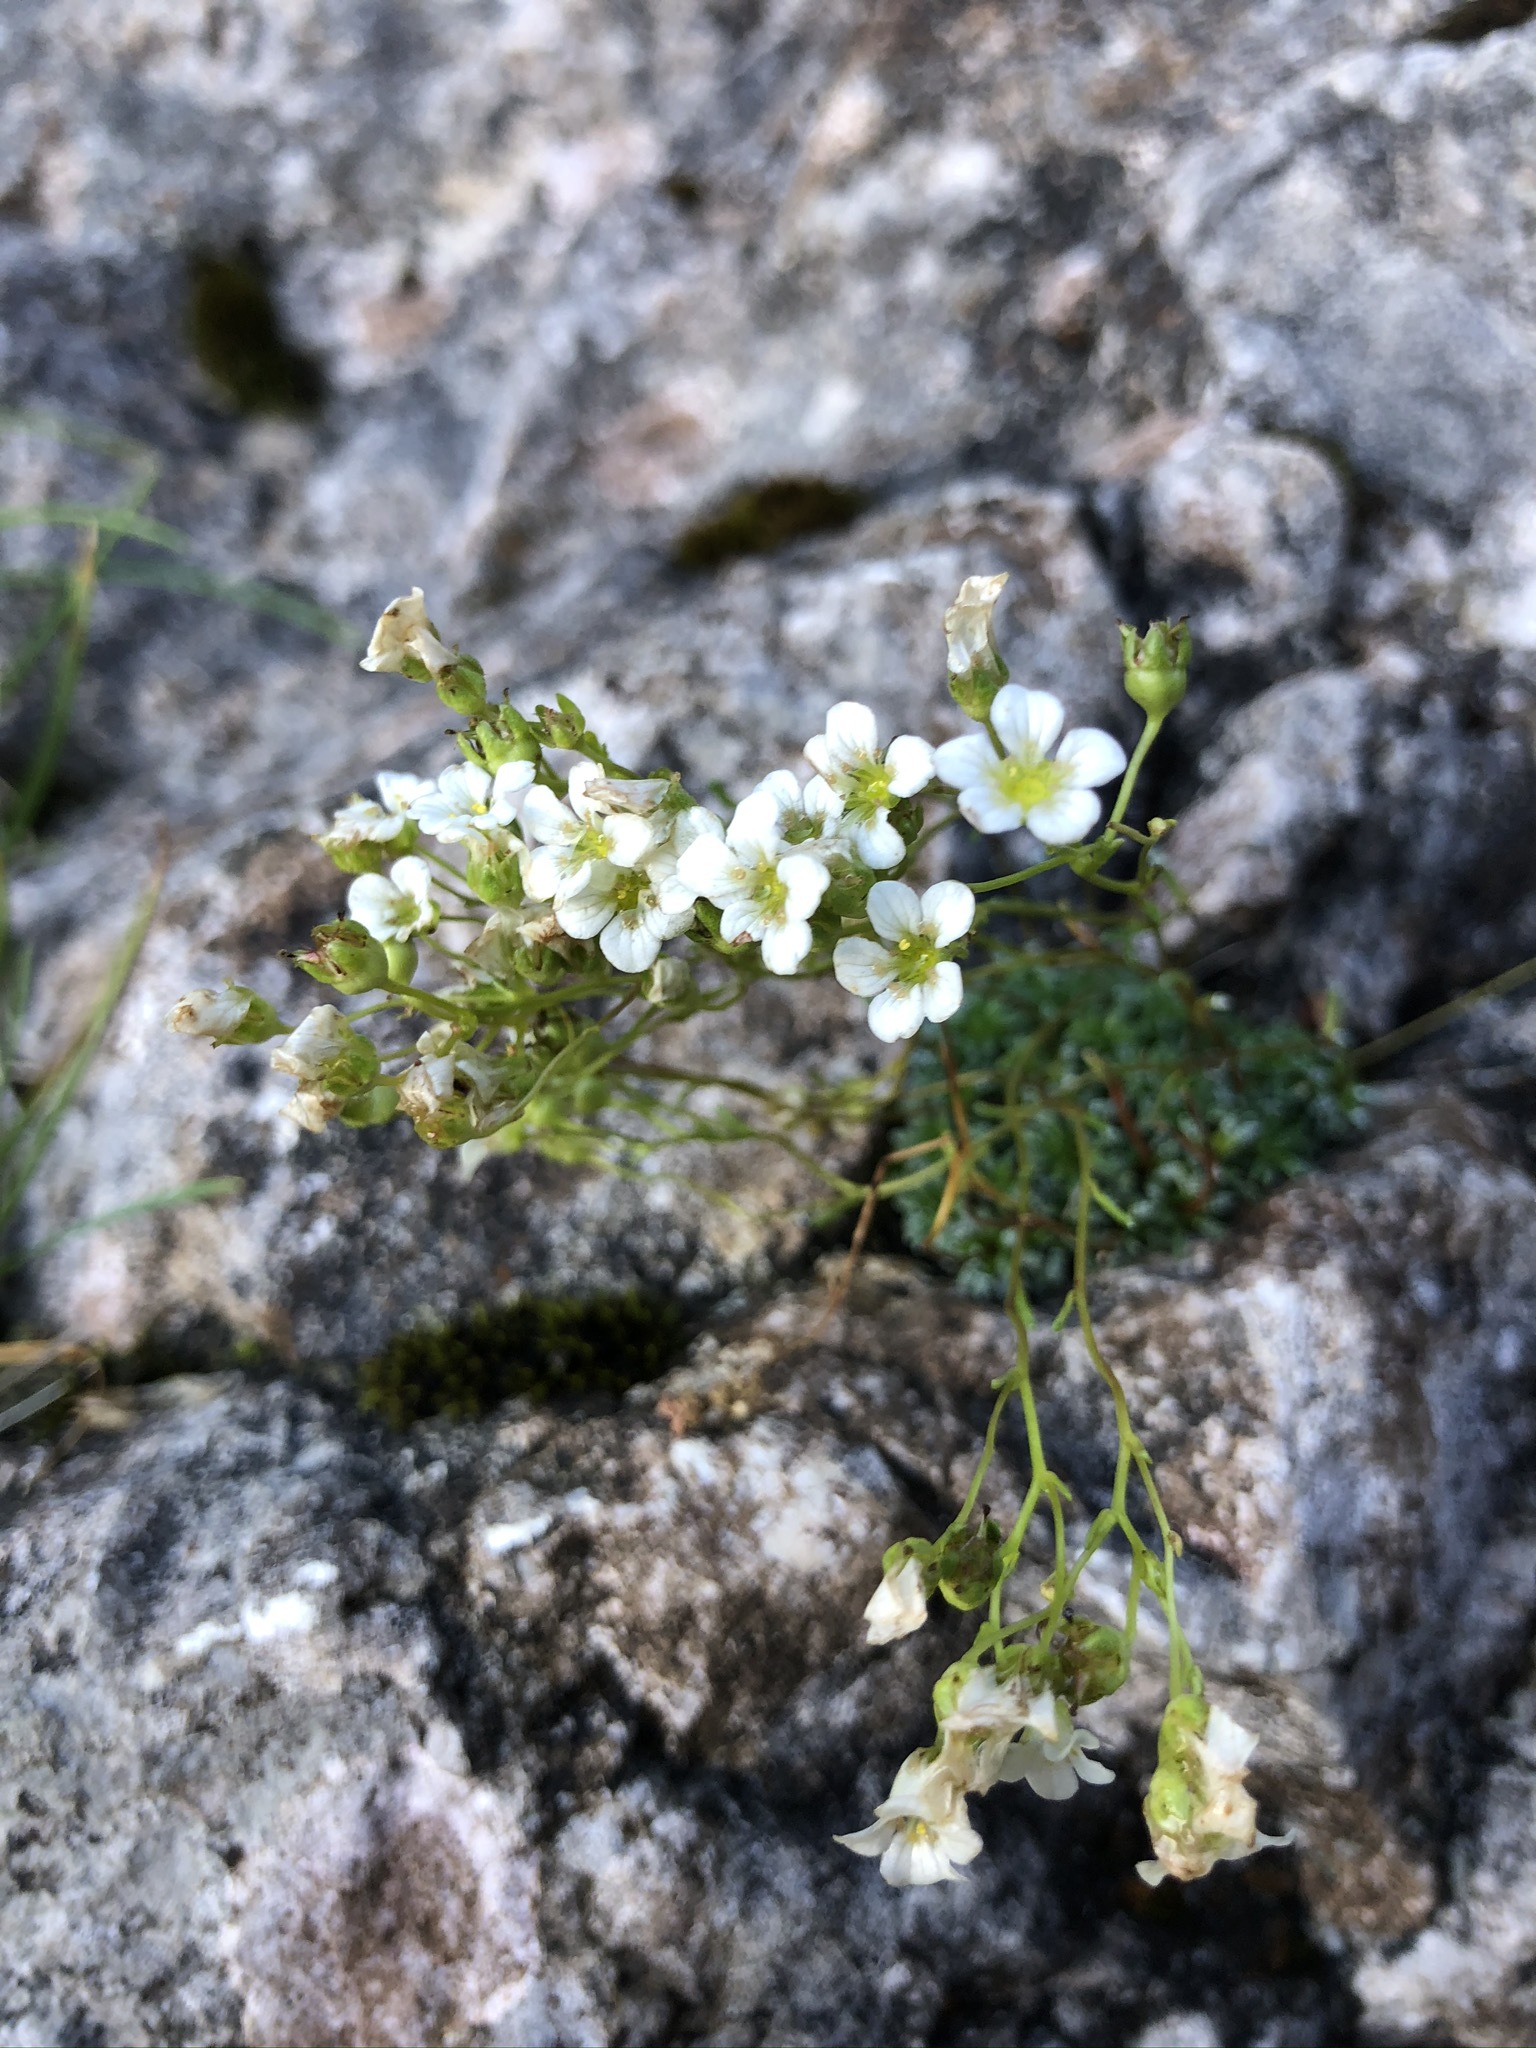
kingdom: Plantae
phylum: Tracheophyta
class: Magnoliopsida
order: Saxifragales
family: Saxifragaceae
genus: Saxifraga
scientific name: Saxifraga caesia
